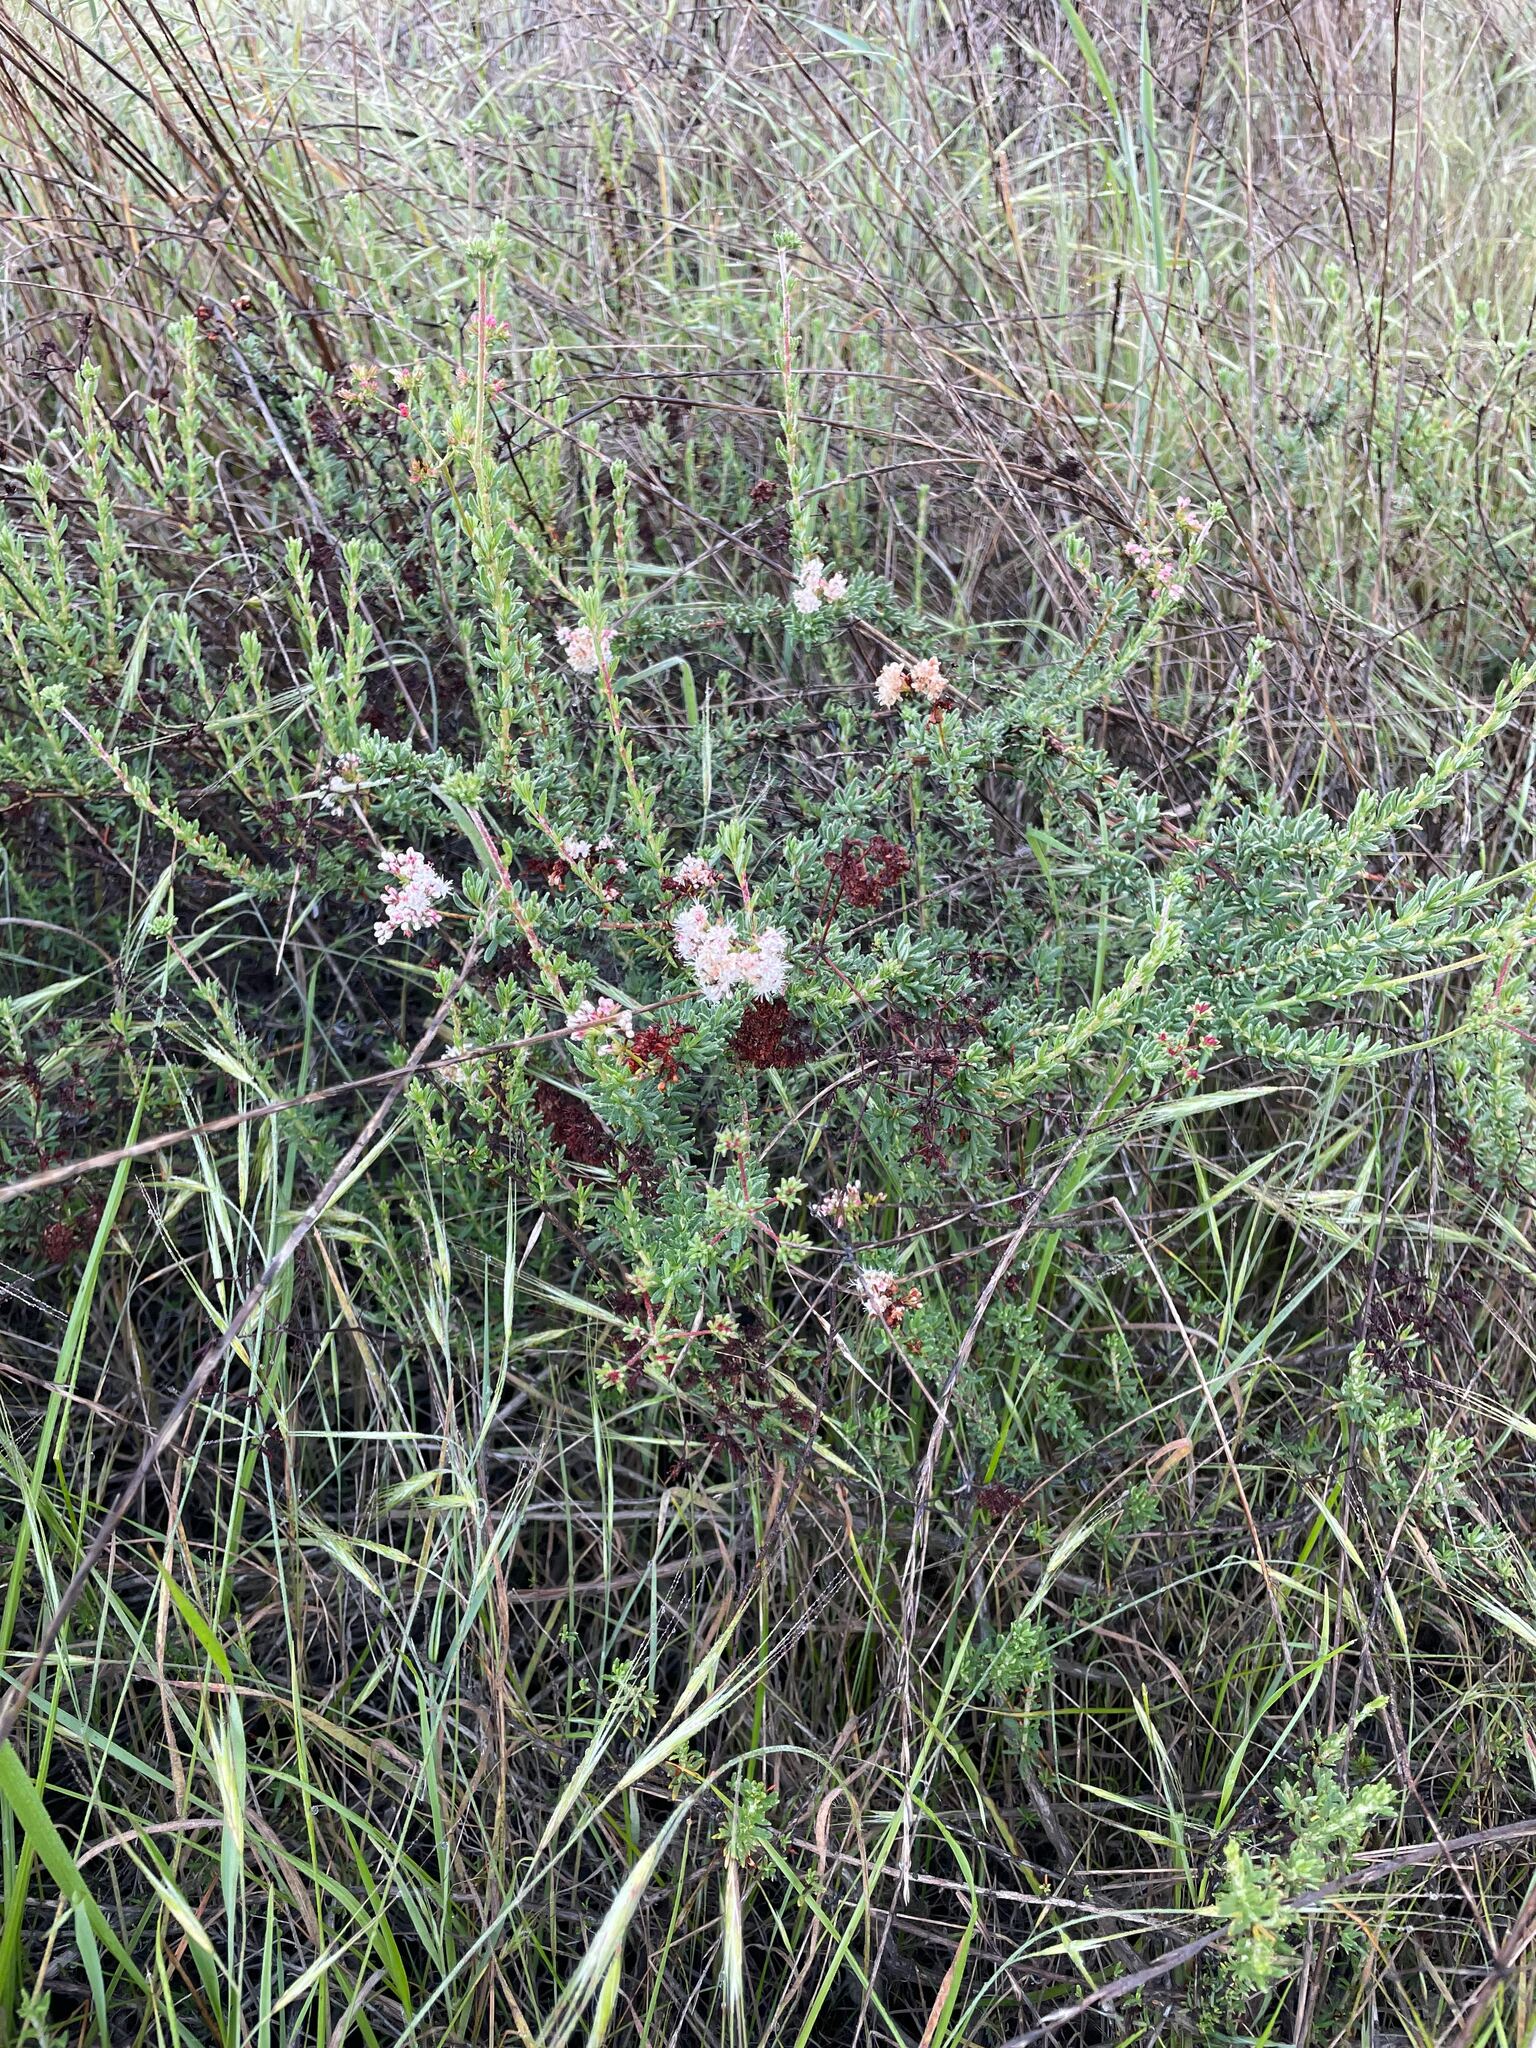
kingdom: Plantae
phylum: Tracheophyta
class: Magnoliopsida
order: Caryophyllales
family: Polygonaceae
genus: Eriogonum
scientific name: Eriogonum fasciculatum
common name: California wild buckwheat
